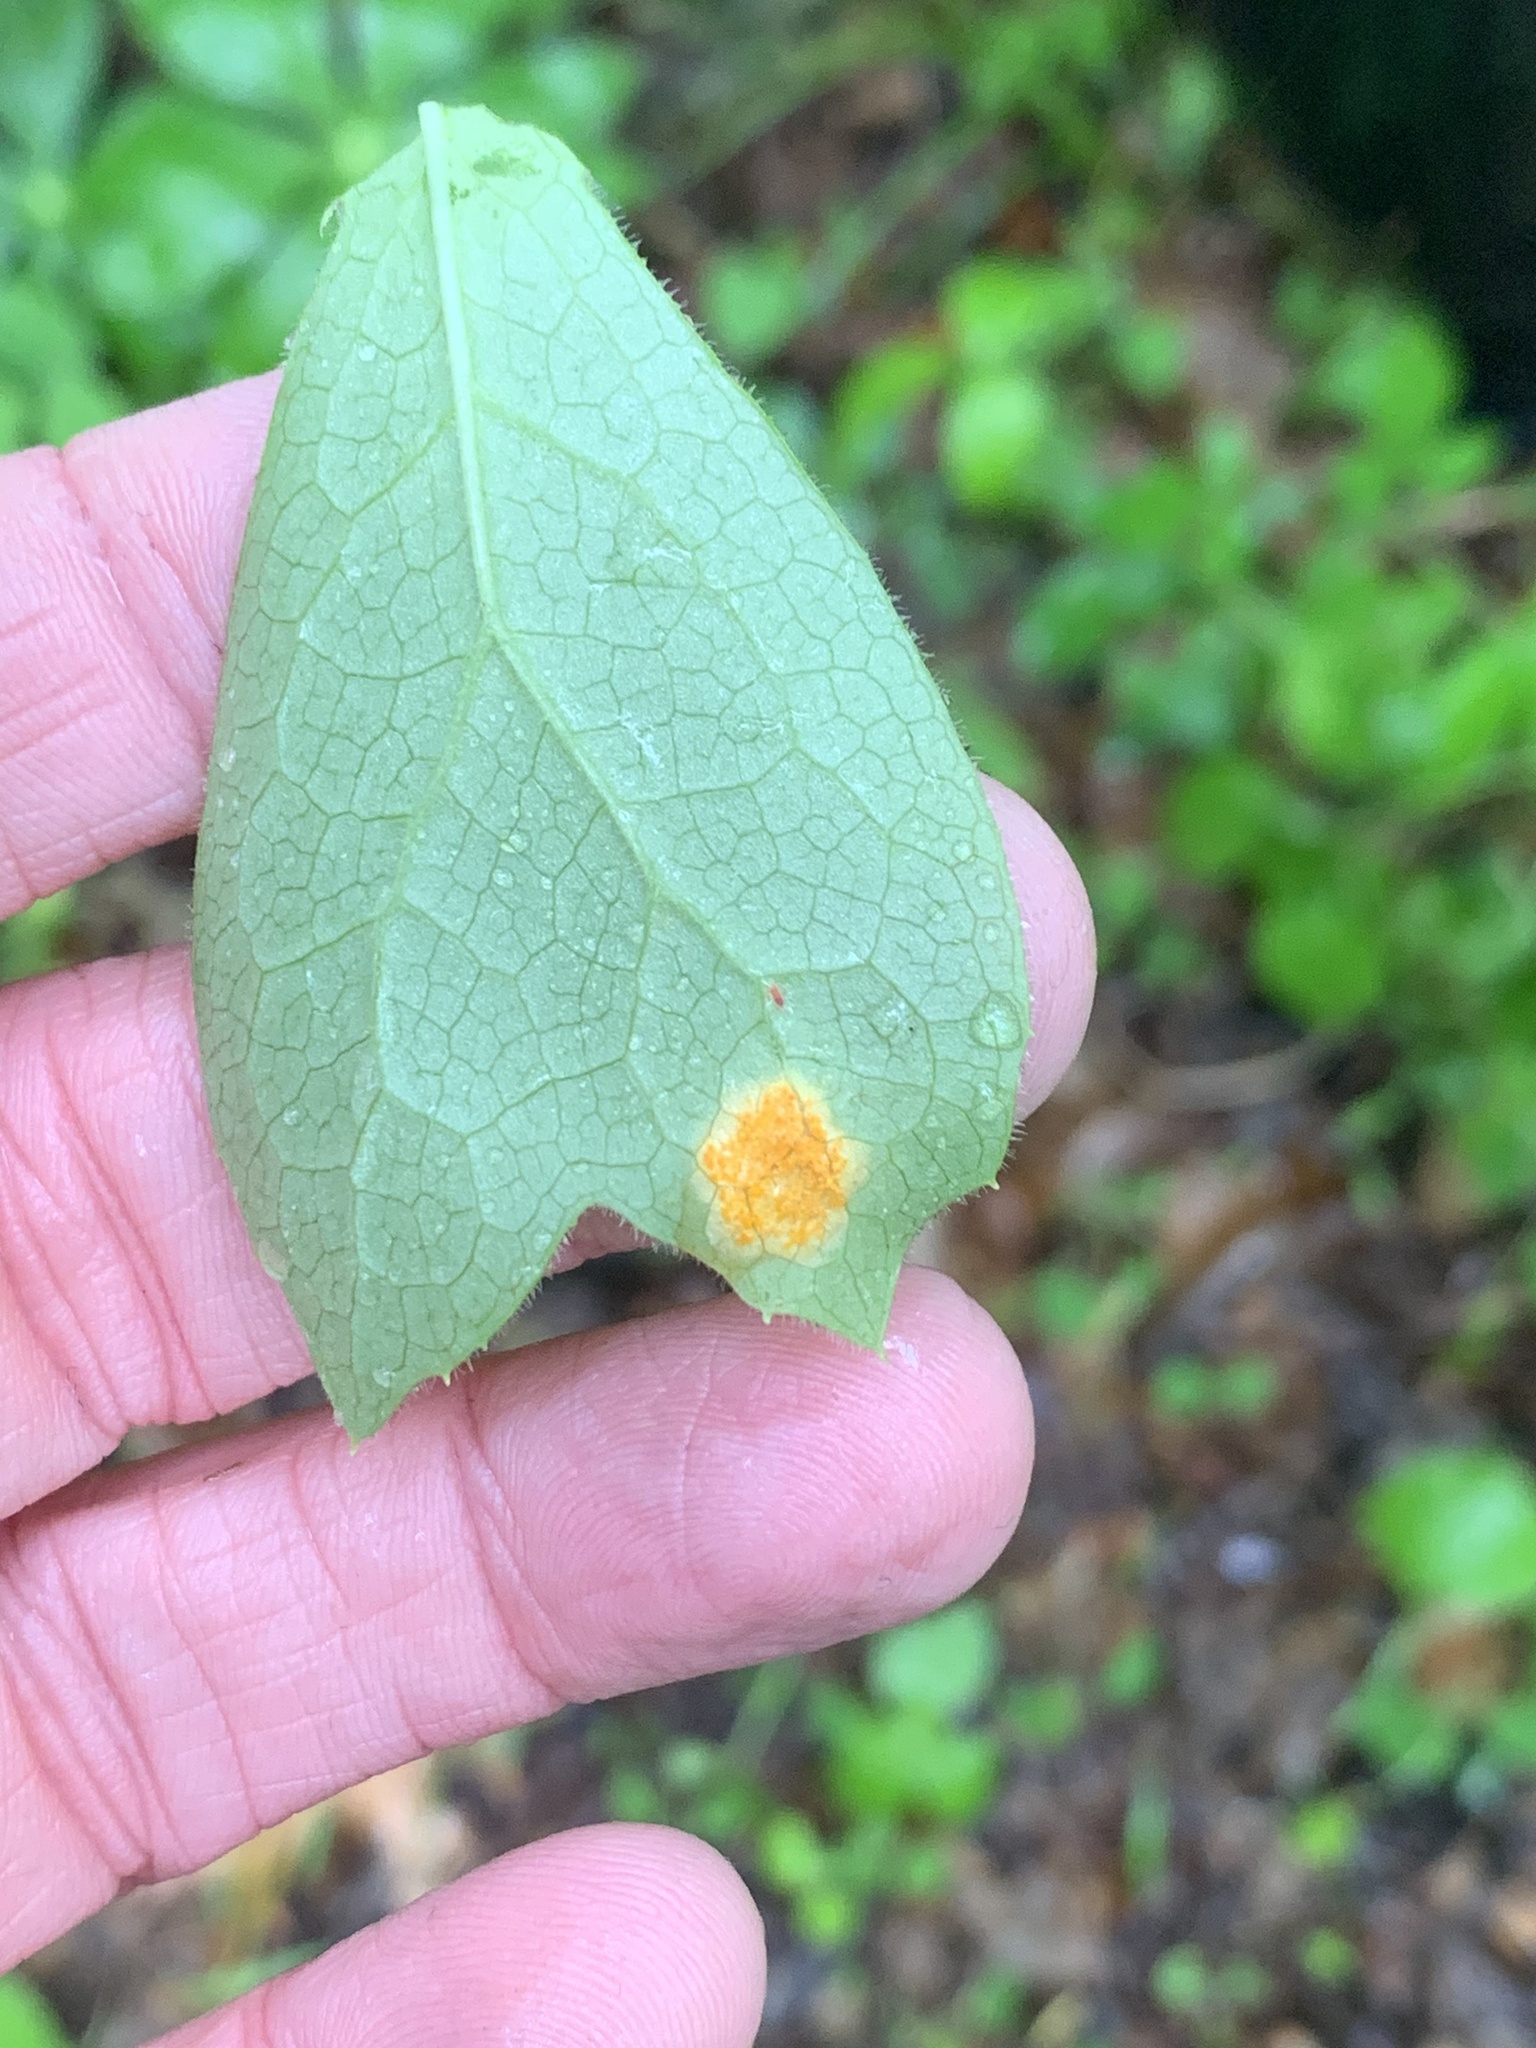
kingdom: Fungi
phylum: Basidiomycota
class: Pucciniomycetes
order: Pucciniales
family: Pucciniaceae
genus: Puccinia
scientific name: Puccinia podophylli
